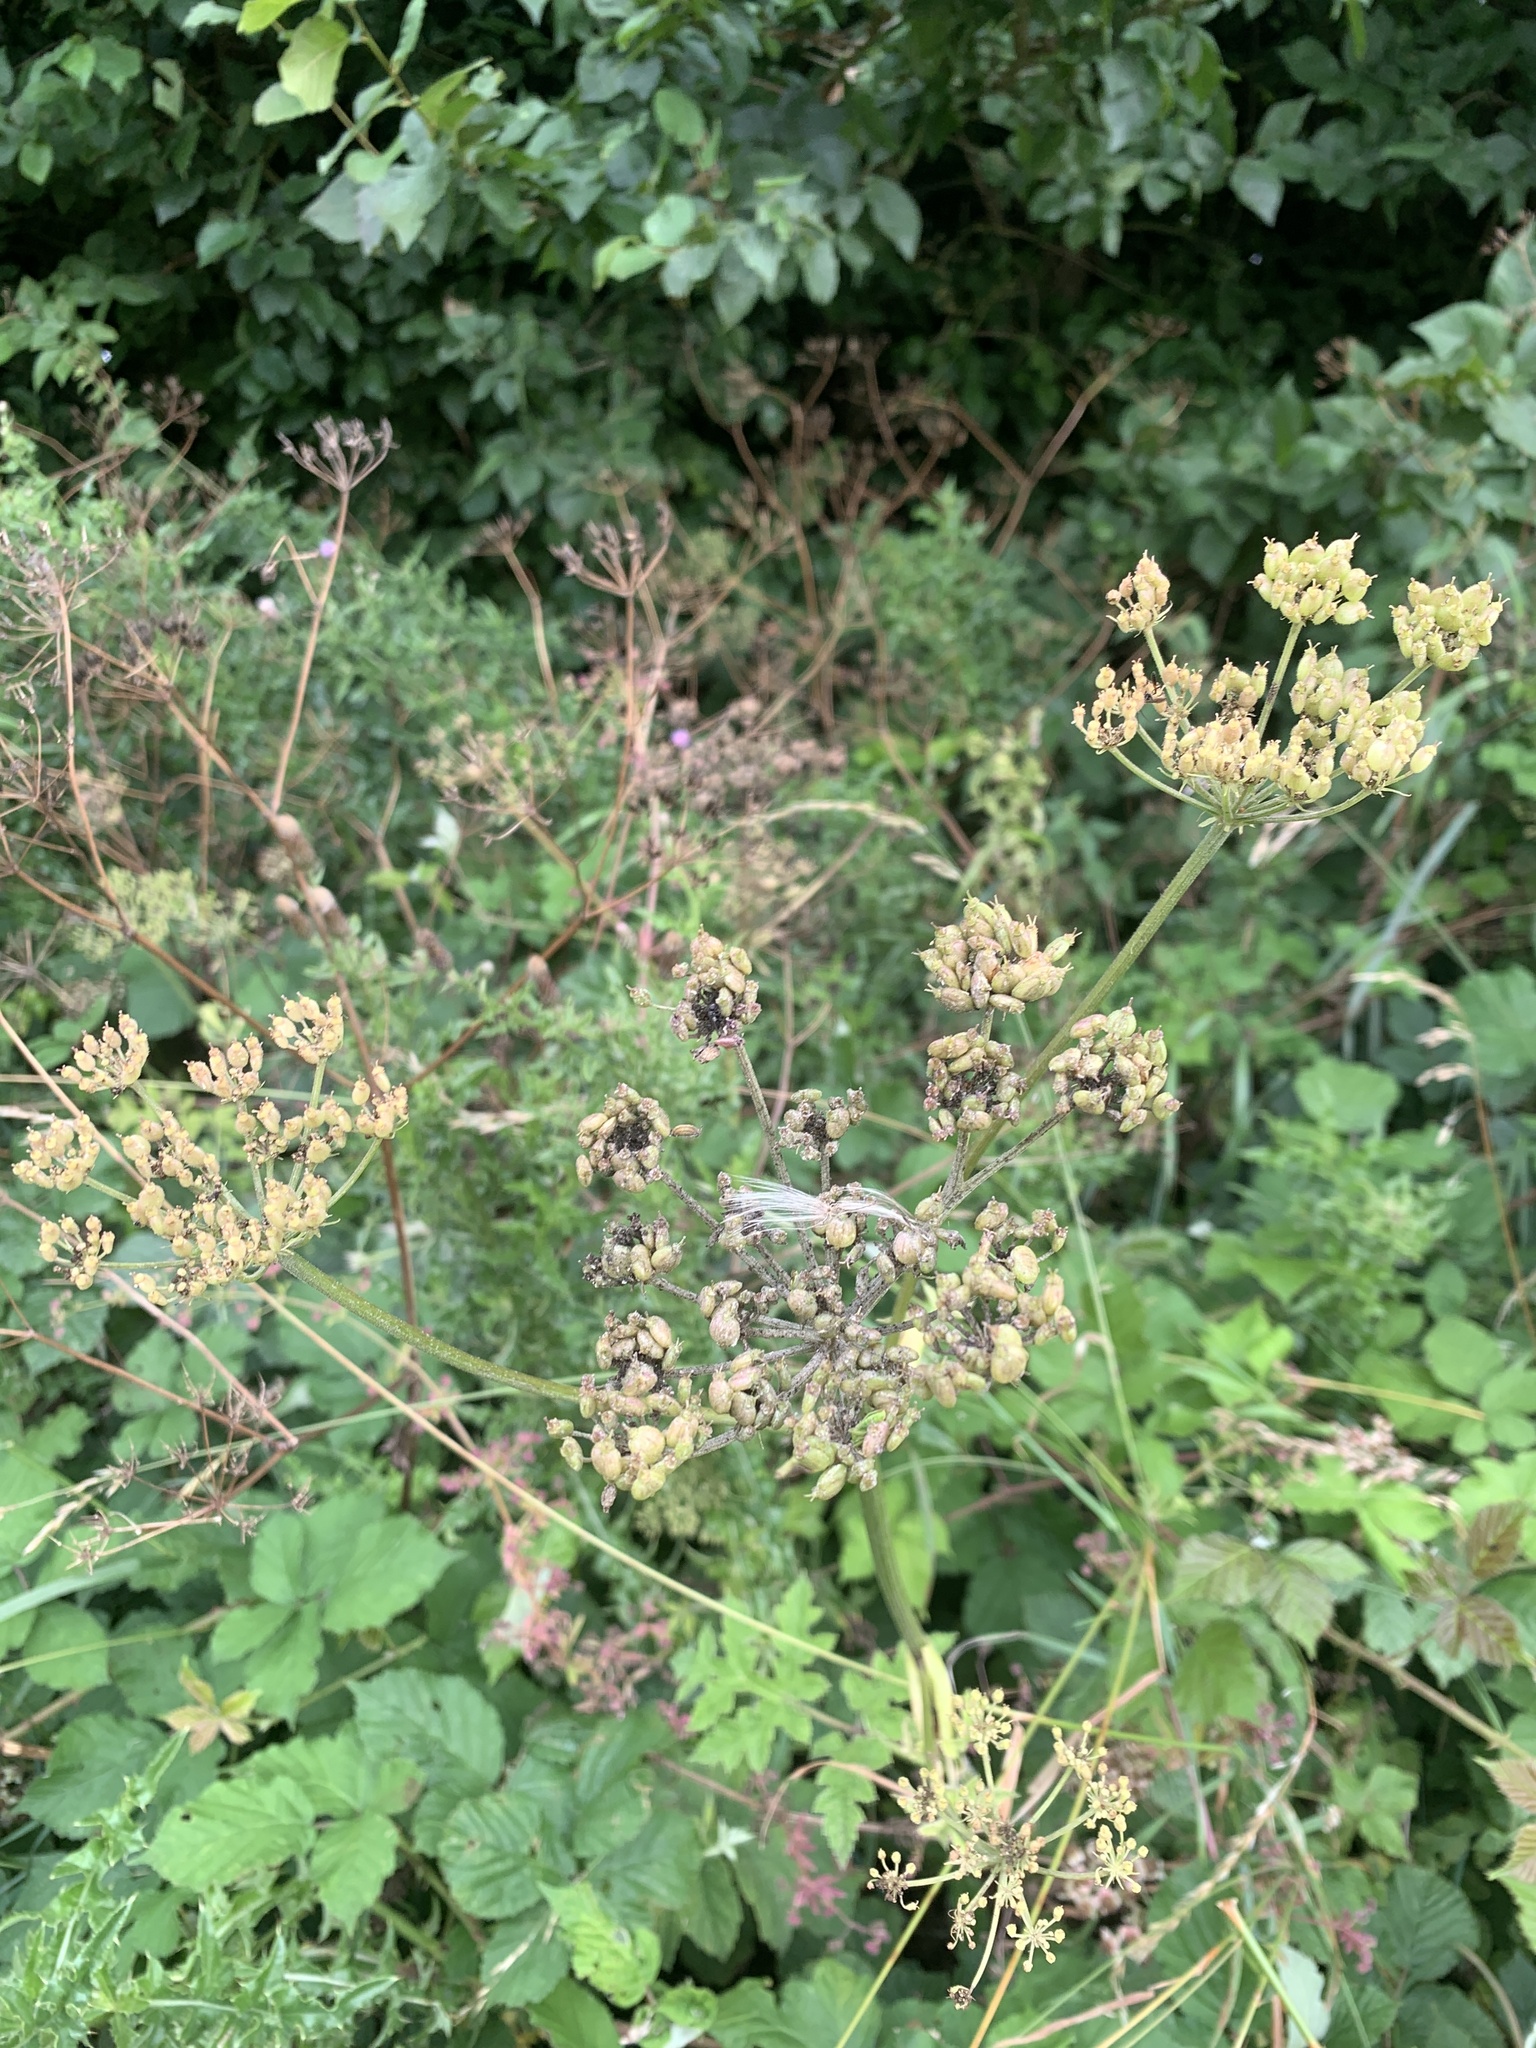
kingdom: Plantae
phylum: Tracheophyta
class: Magnoliopsida
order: Apiales
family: Apiaceae
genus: Heracleum
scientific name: Heracleum sphondylium
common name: Hogweed
